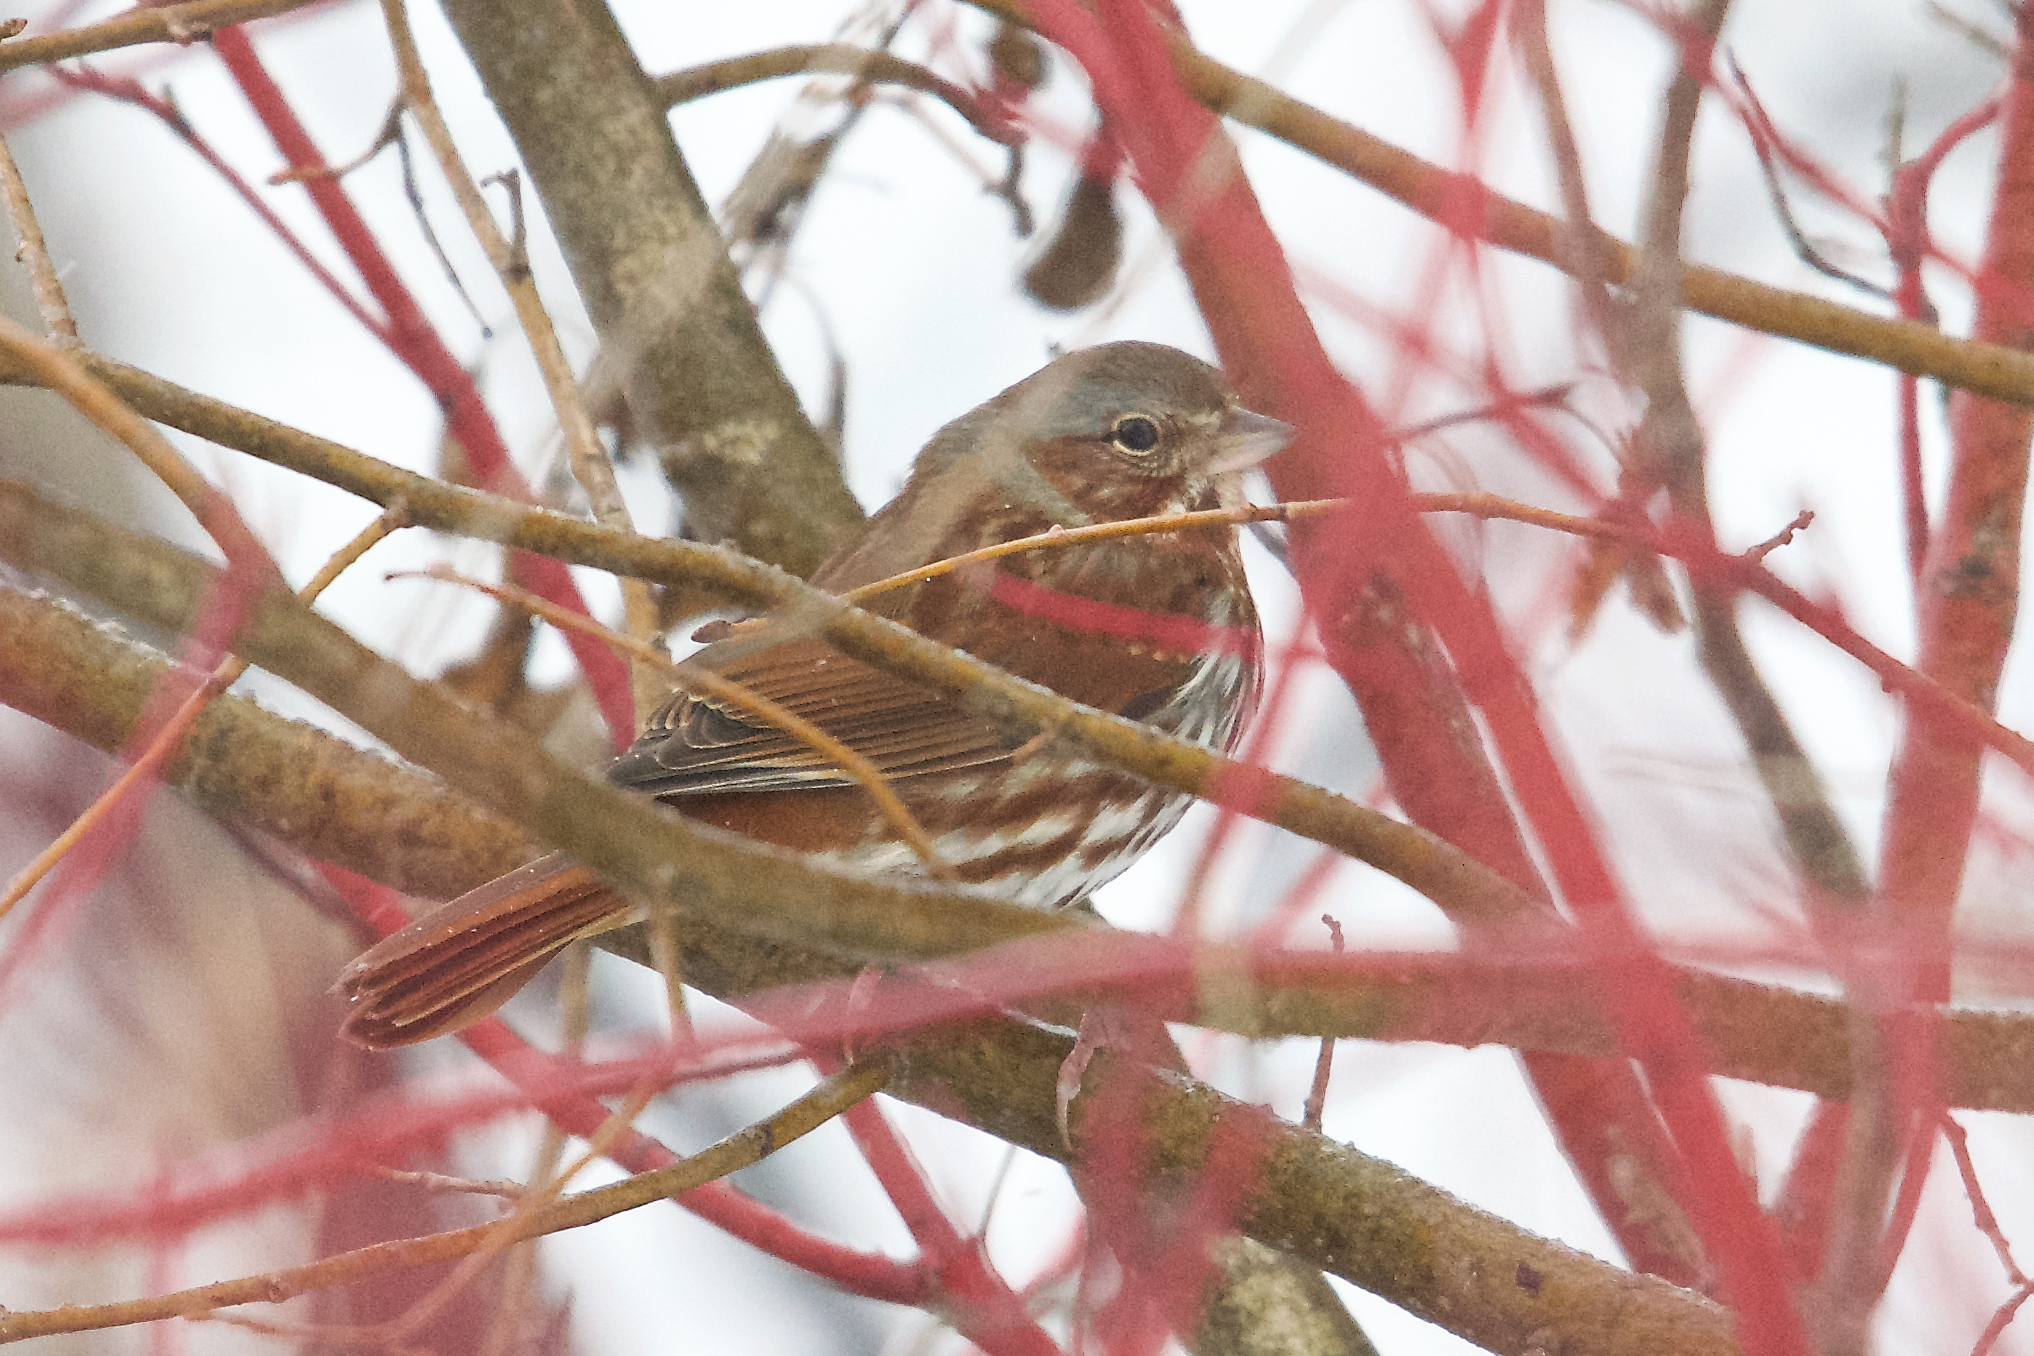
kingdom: Animalia
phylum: Chordata
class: Aves
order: Passeriformes
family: Passerellidae
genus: Passerella
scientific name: Passerella iliaca
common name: Fox sparrow
